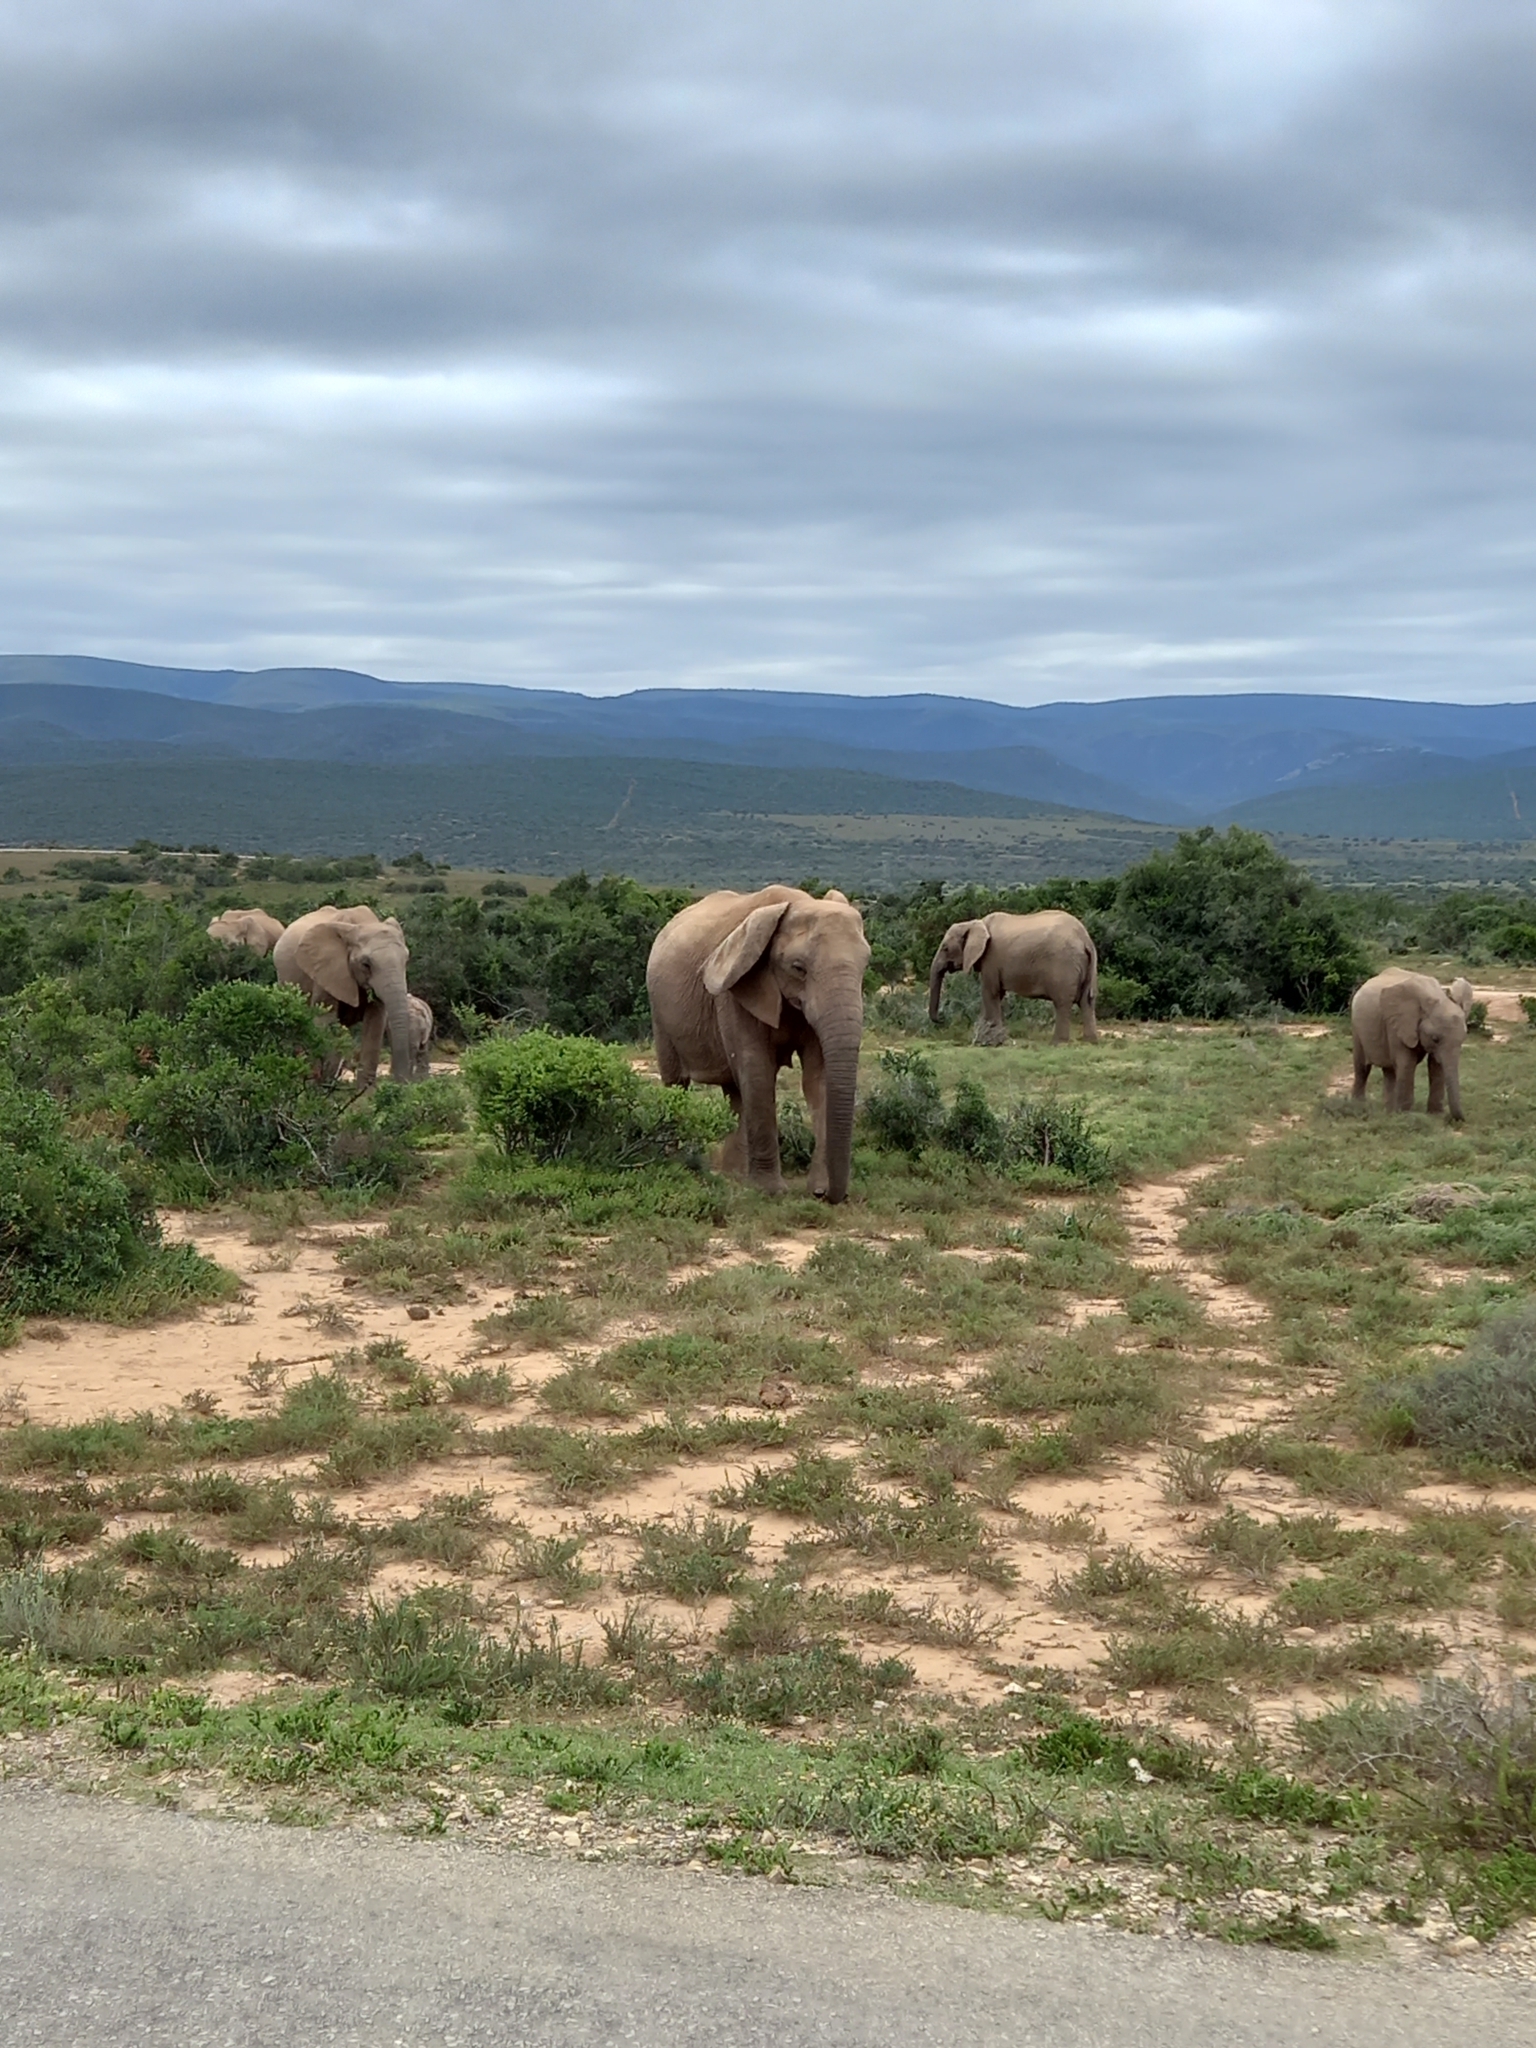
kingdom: Animalia
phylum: Chordata
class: Mammalia
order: Proboscidea
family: Elephantidae
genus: Loxodonta
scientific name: Loxodonta africana
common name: African elephant
